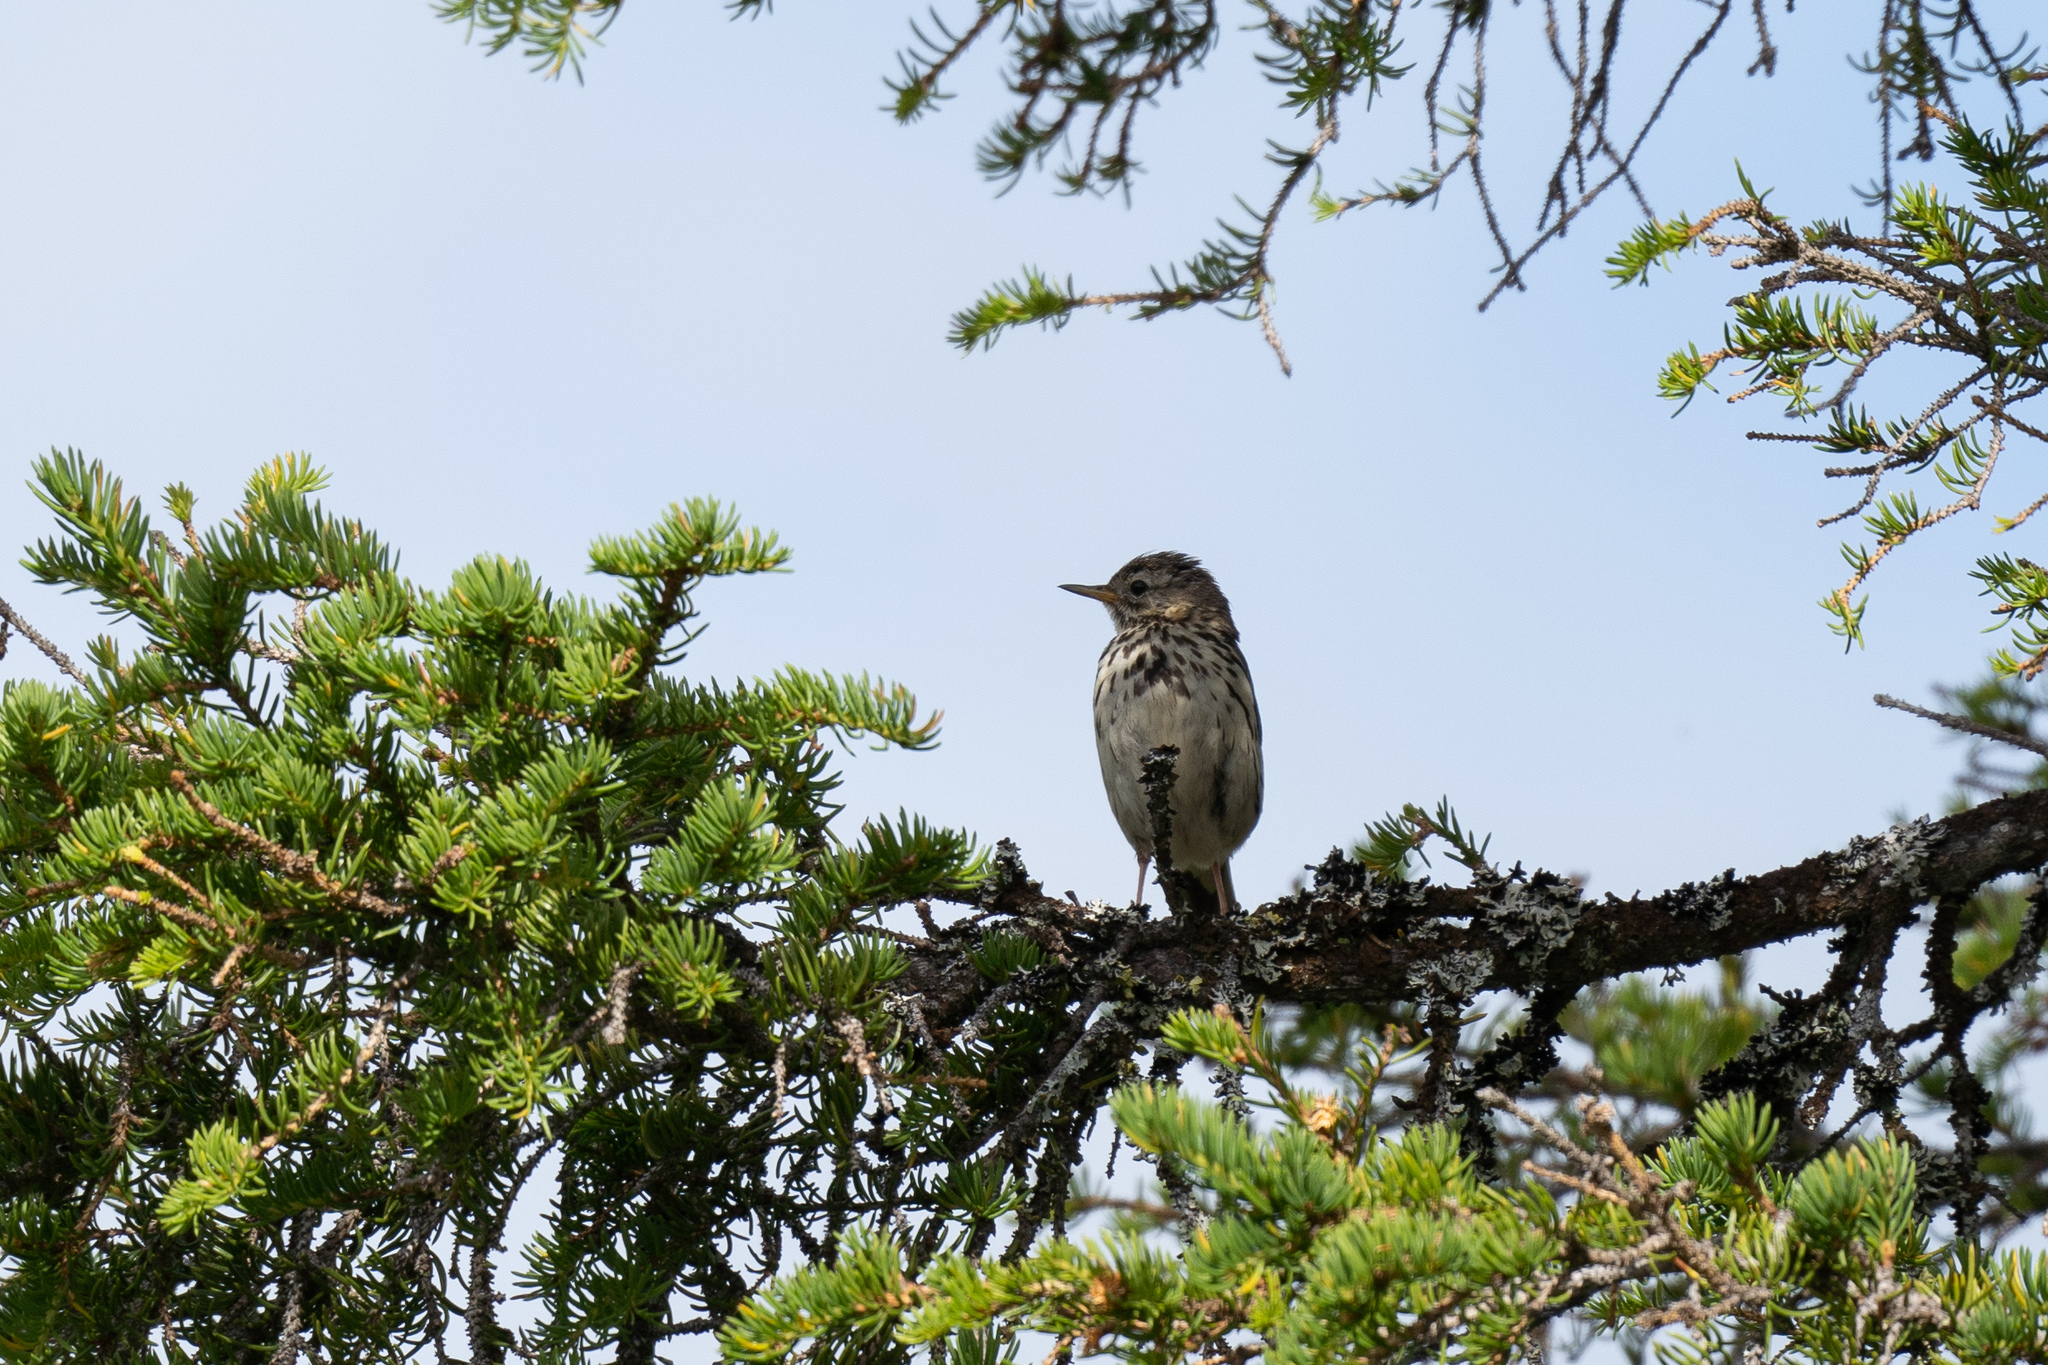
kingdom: Animalia
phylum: Chordata
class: Aves
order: Passeriformes
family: Motacillidae
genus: Anthus
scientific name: Anthus pratensis
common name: Meadow pipit
